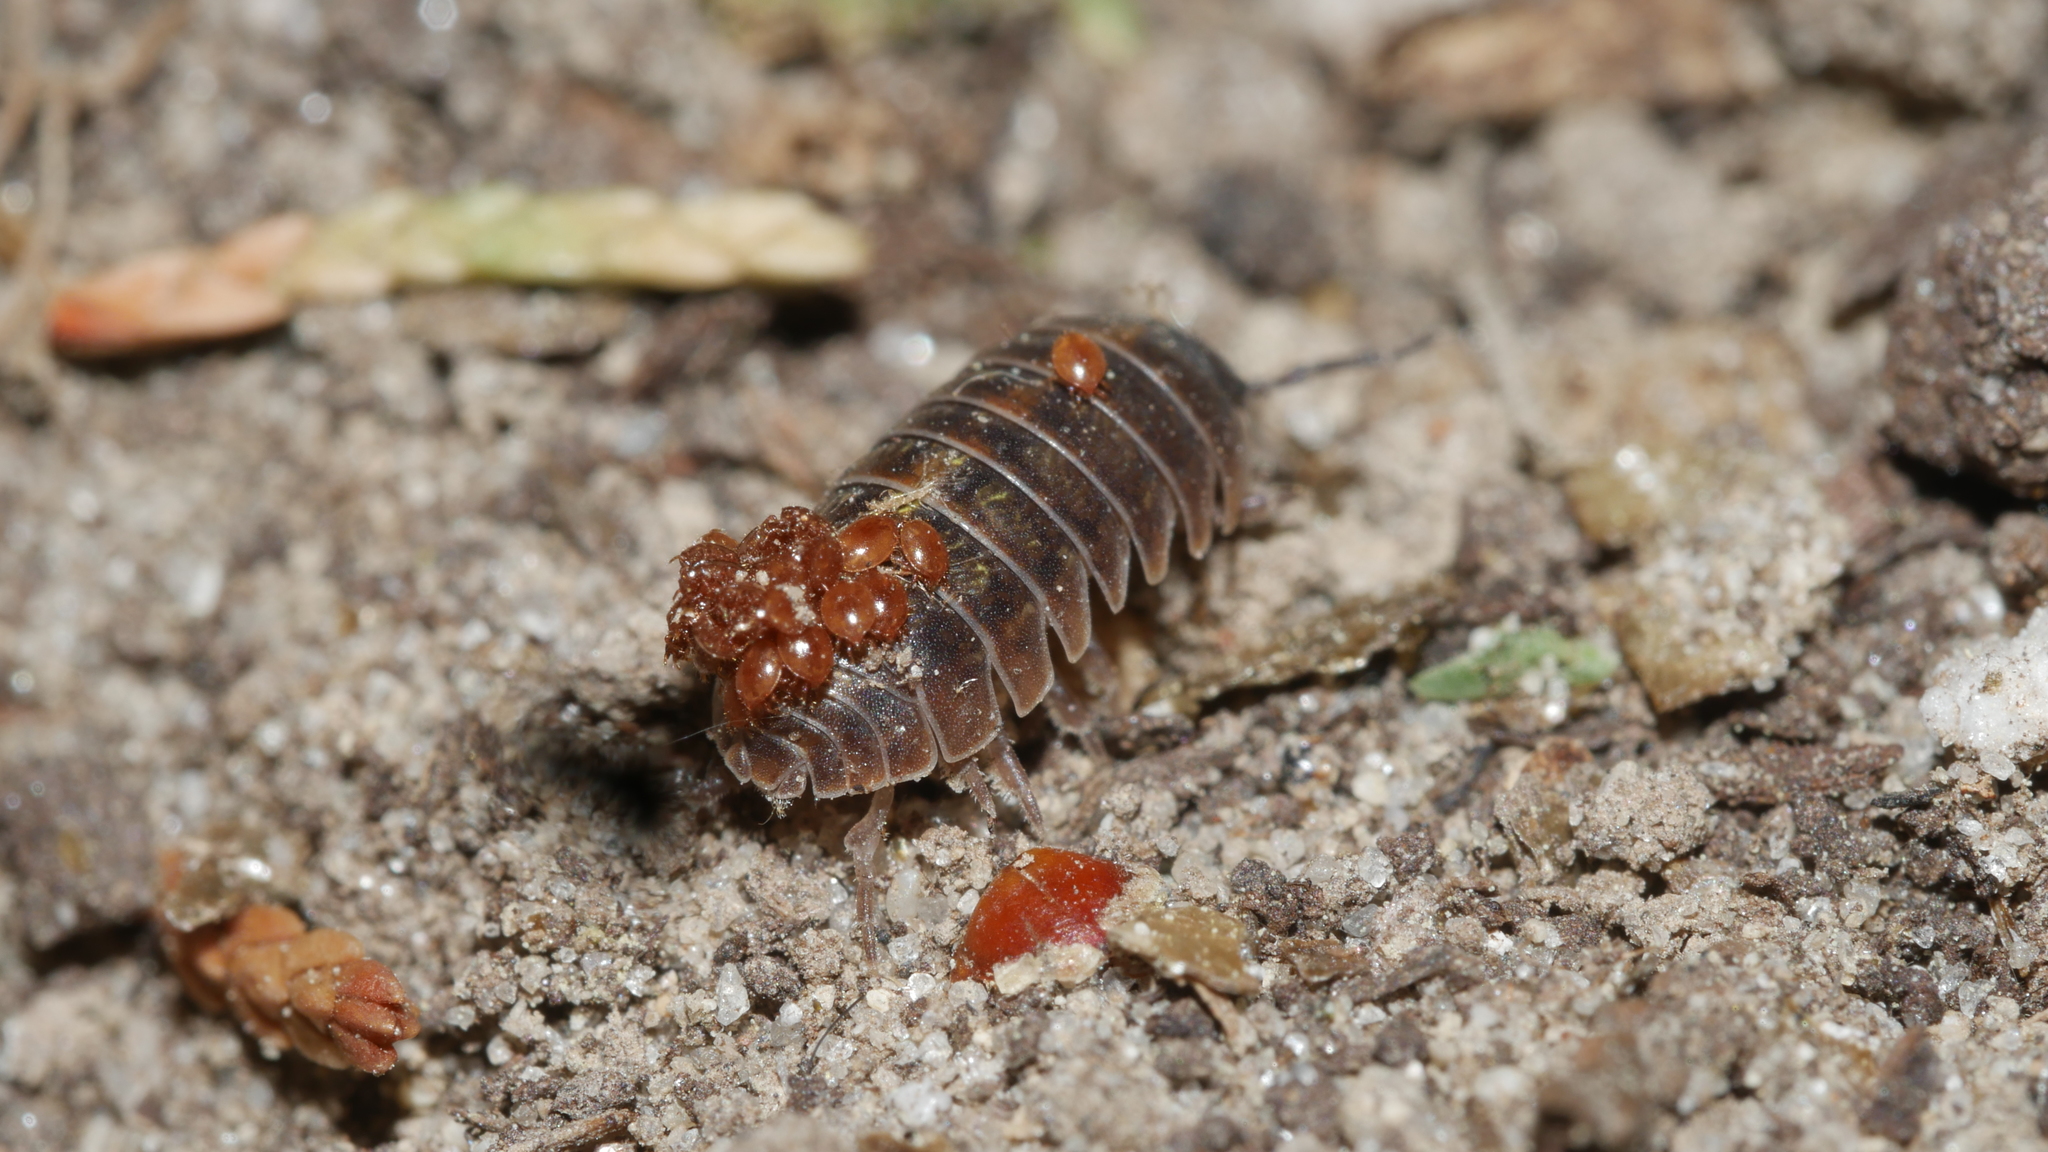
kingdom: Animalia
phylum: Arthropoda
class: Malacostraca
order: Isopoda
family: Armadillidiidae
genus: Armadillidium
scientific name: Armadillidium vulgare
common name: Common pill woodlouse
